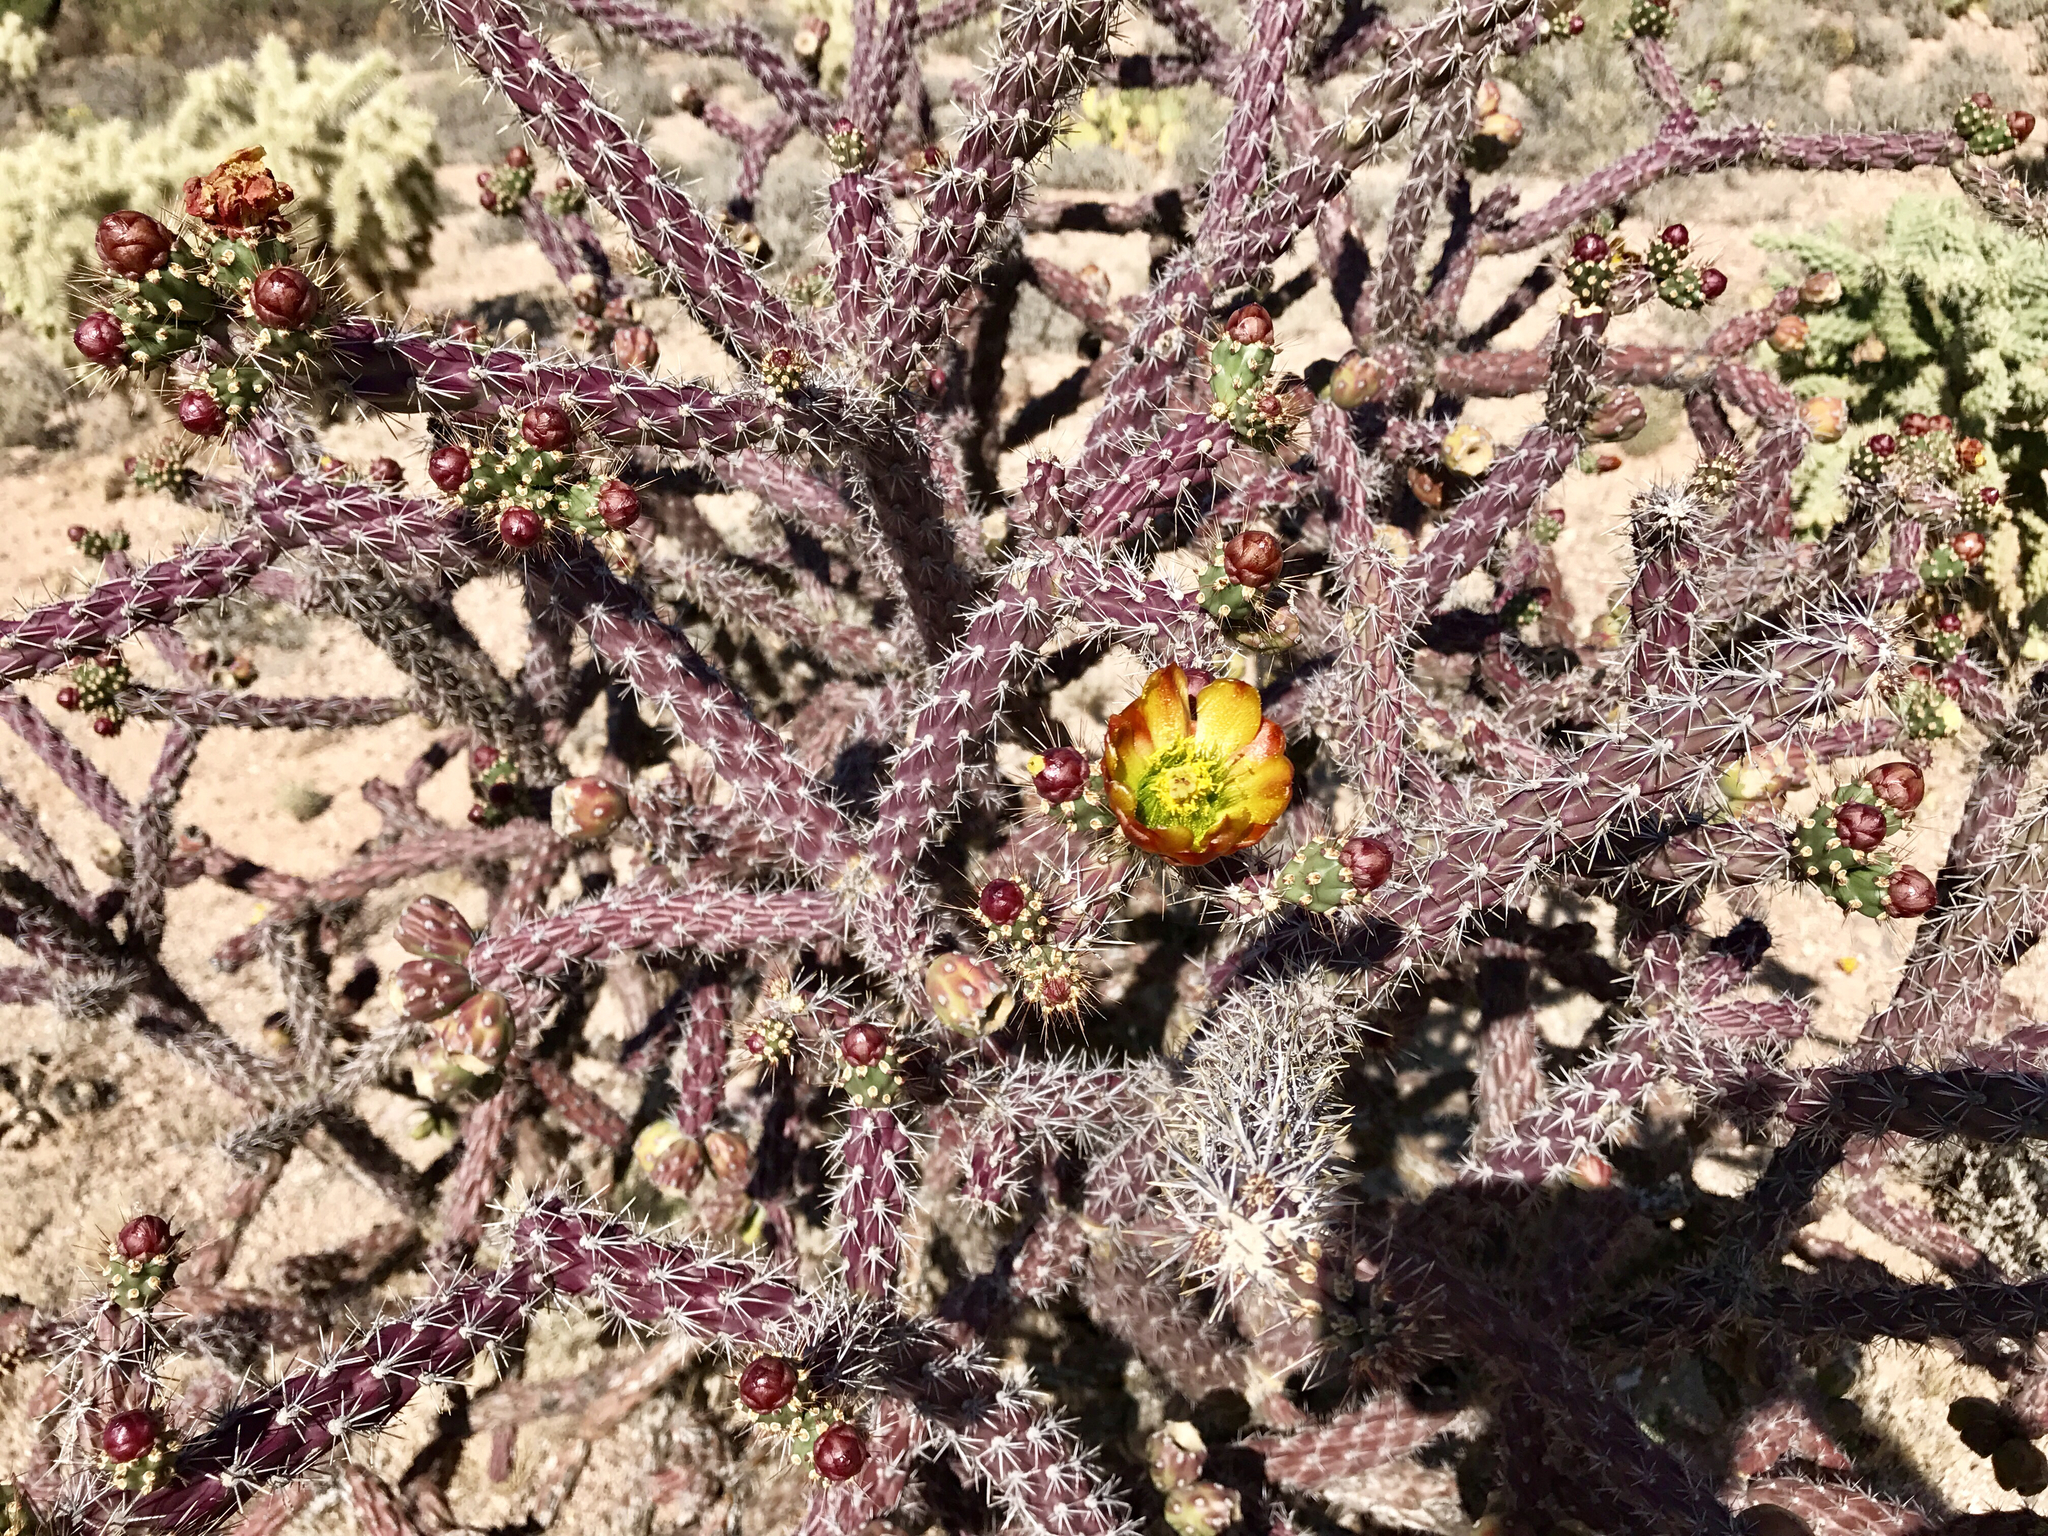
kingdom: Plantae
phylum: Tracheophyta
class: Magnoliopsida
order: Caryophyllales
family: Cactaceae
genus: Cylindropuntia
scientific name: Cylindropuntia thurberi
